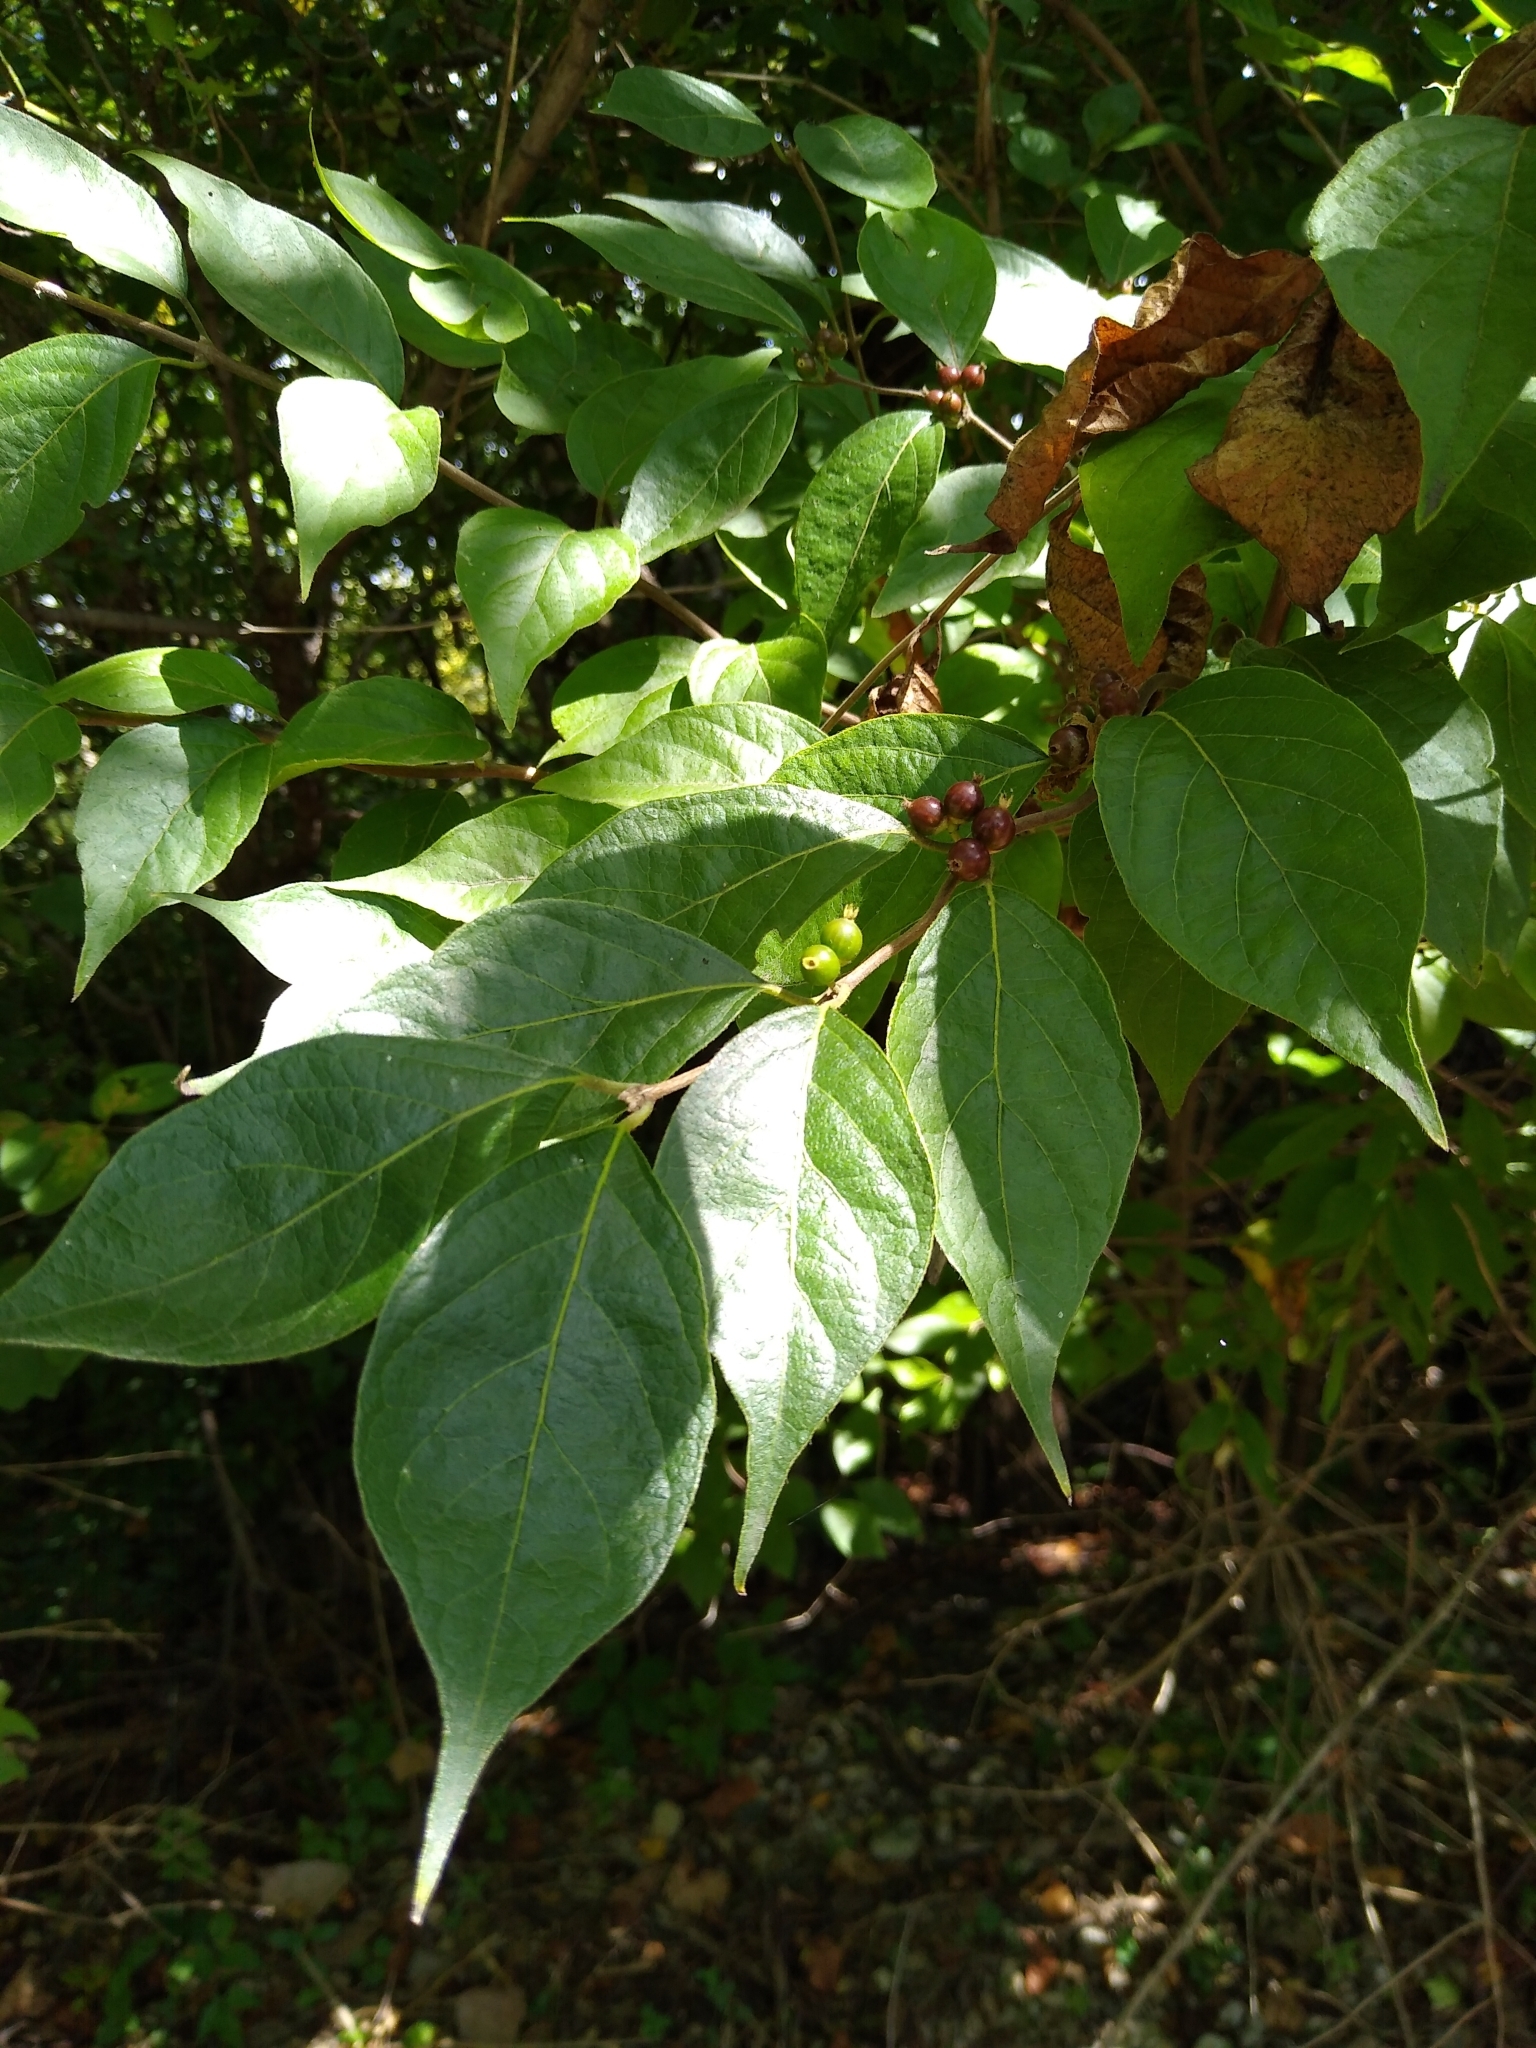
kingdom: Plantae
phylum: Tracheophyta
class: Magnoliopsida
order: Dipsacales
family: Caprifoliaceae
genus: Lonicera
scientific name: Lonicera maackii
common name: Amur honeysuckle
